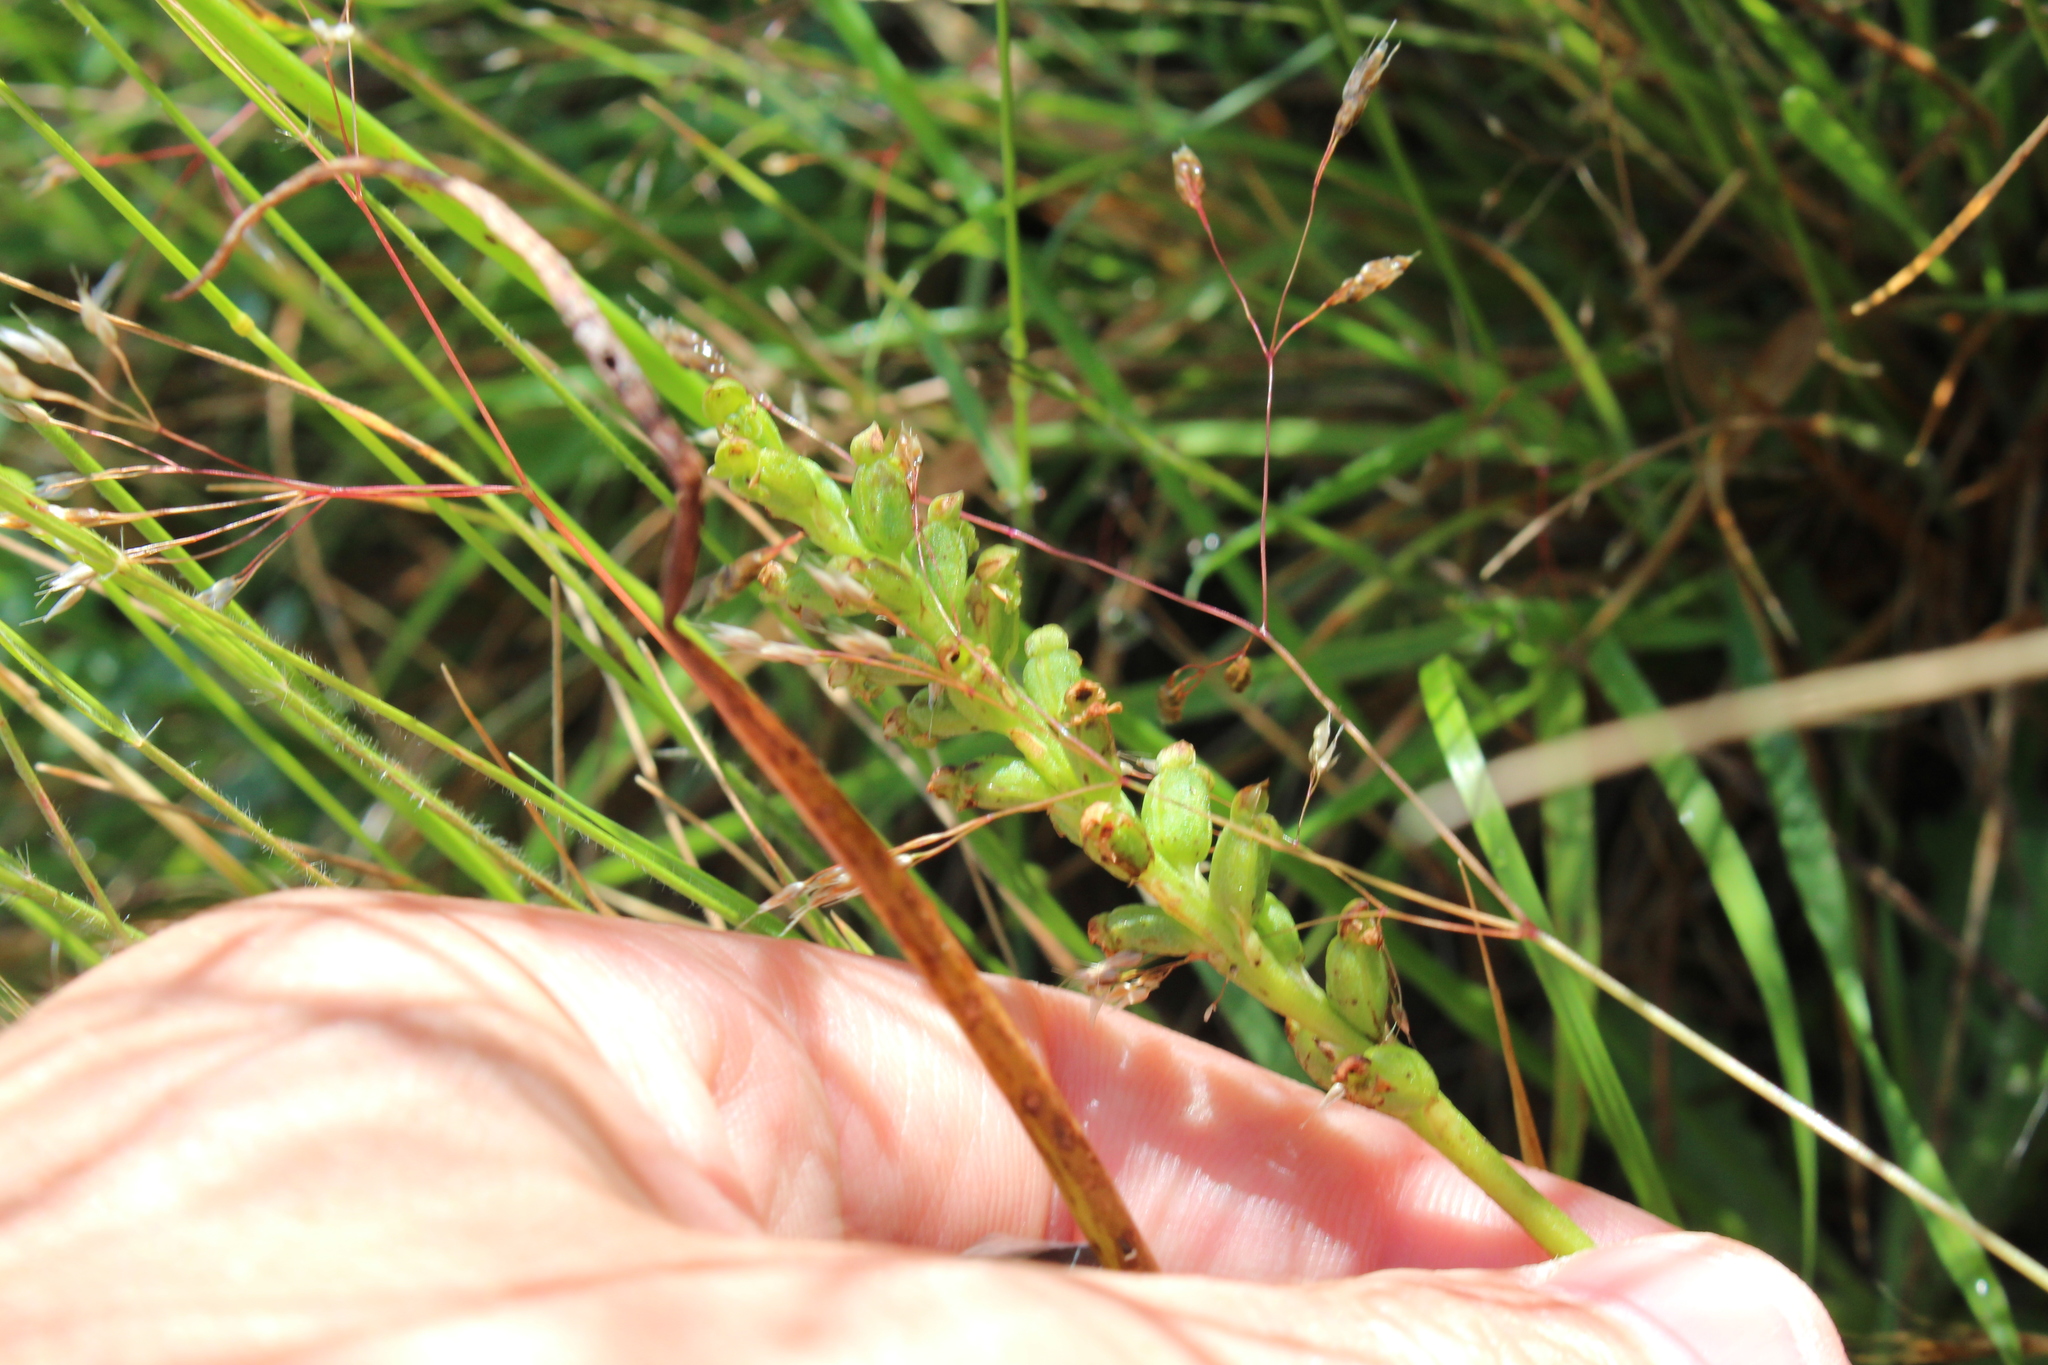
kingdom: Plantae
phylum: Tracheophyta
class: Liliopsida
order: Asparagales
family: Orchidaceae
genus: Microtis
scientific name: Microtis unifolia
